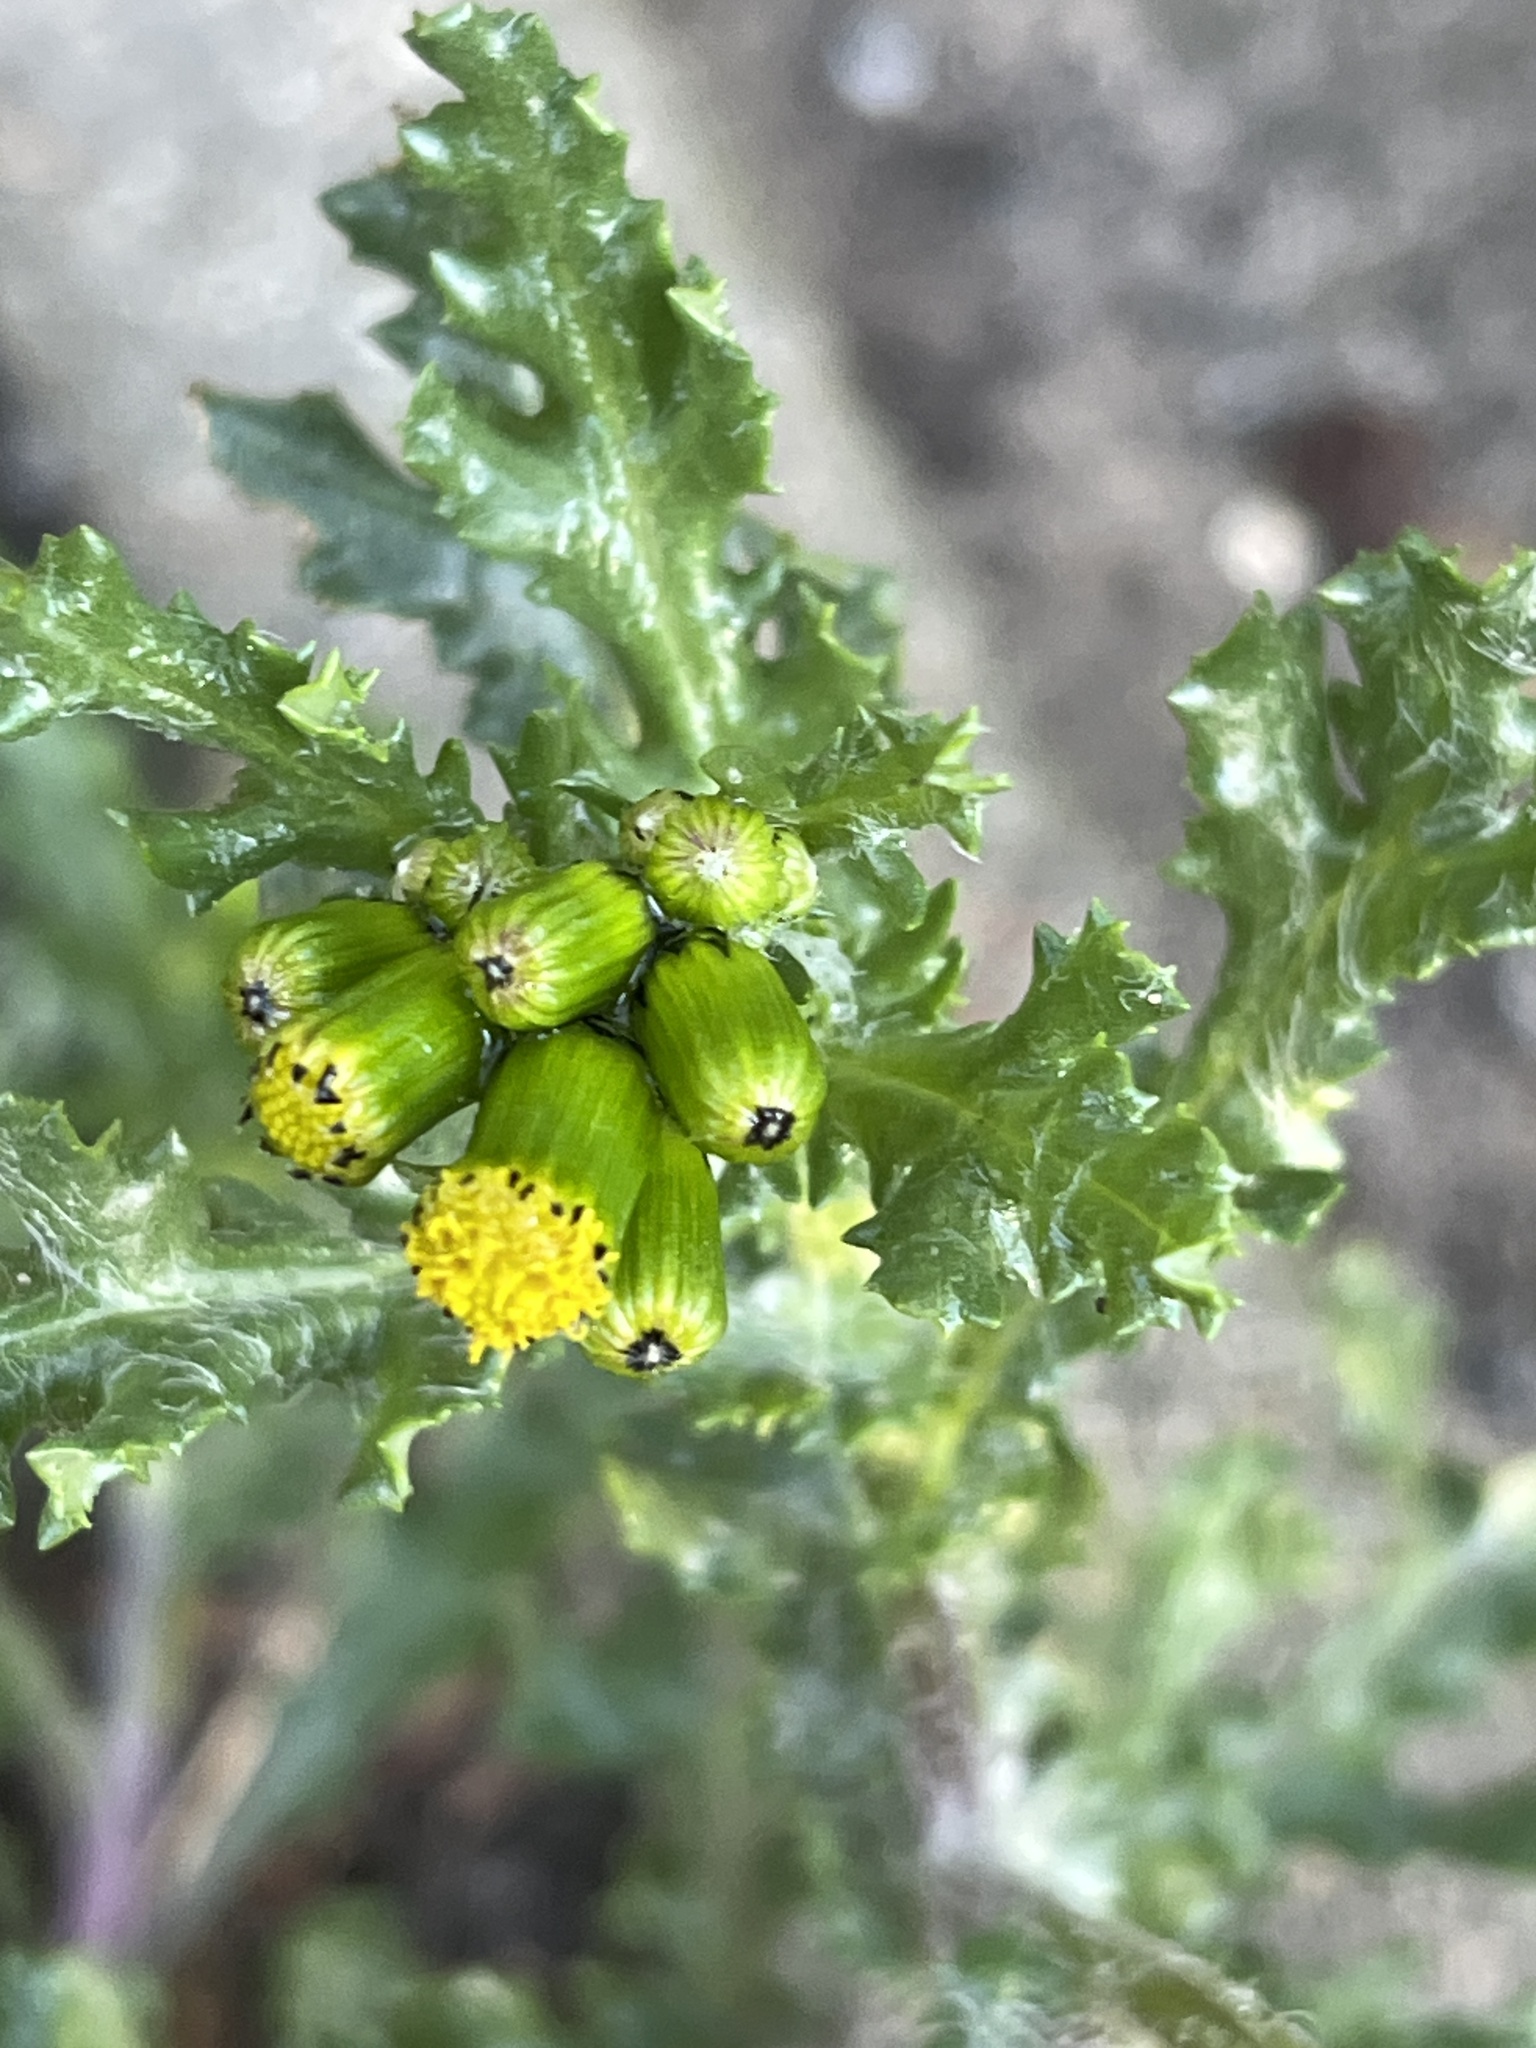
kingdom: Plantae
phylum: Tracheophyta
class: Magnoliopsida
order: Asterales
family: Asteraceae
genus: Senecio
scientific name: Senecio vulgaris
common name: Old-man-in-the-spring
